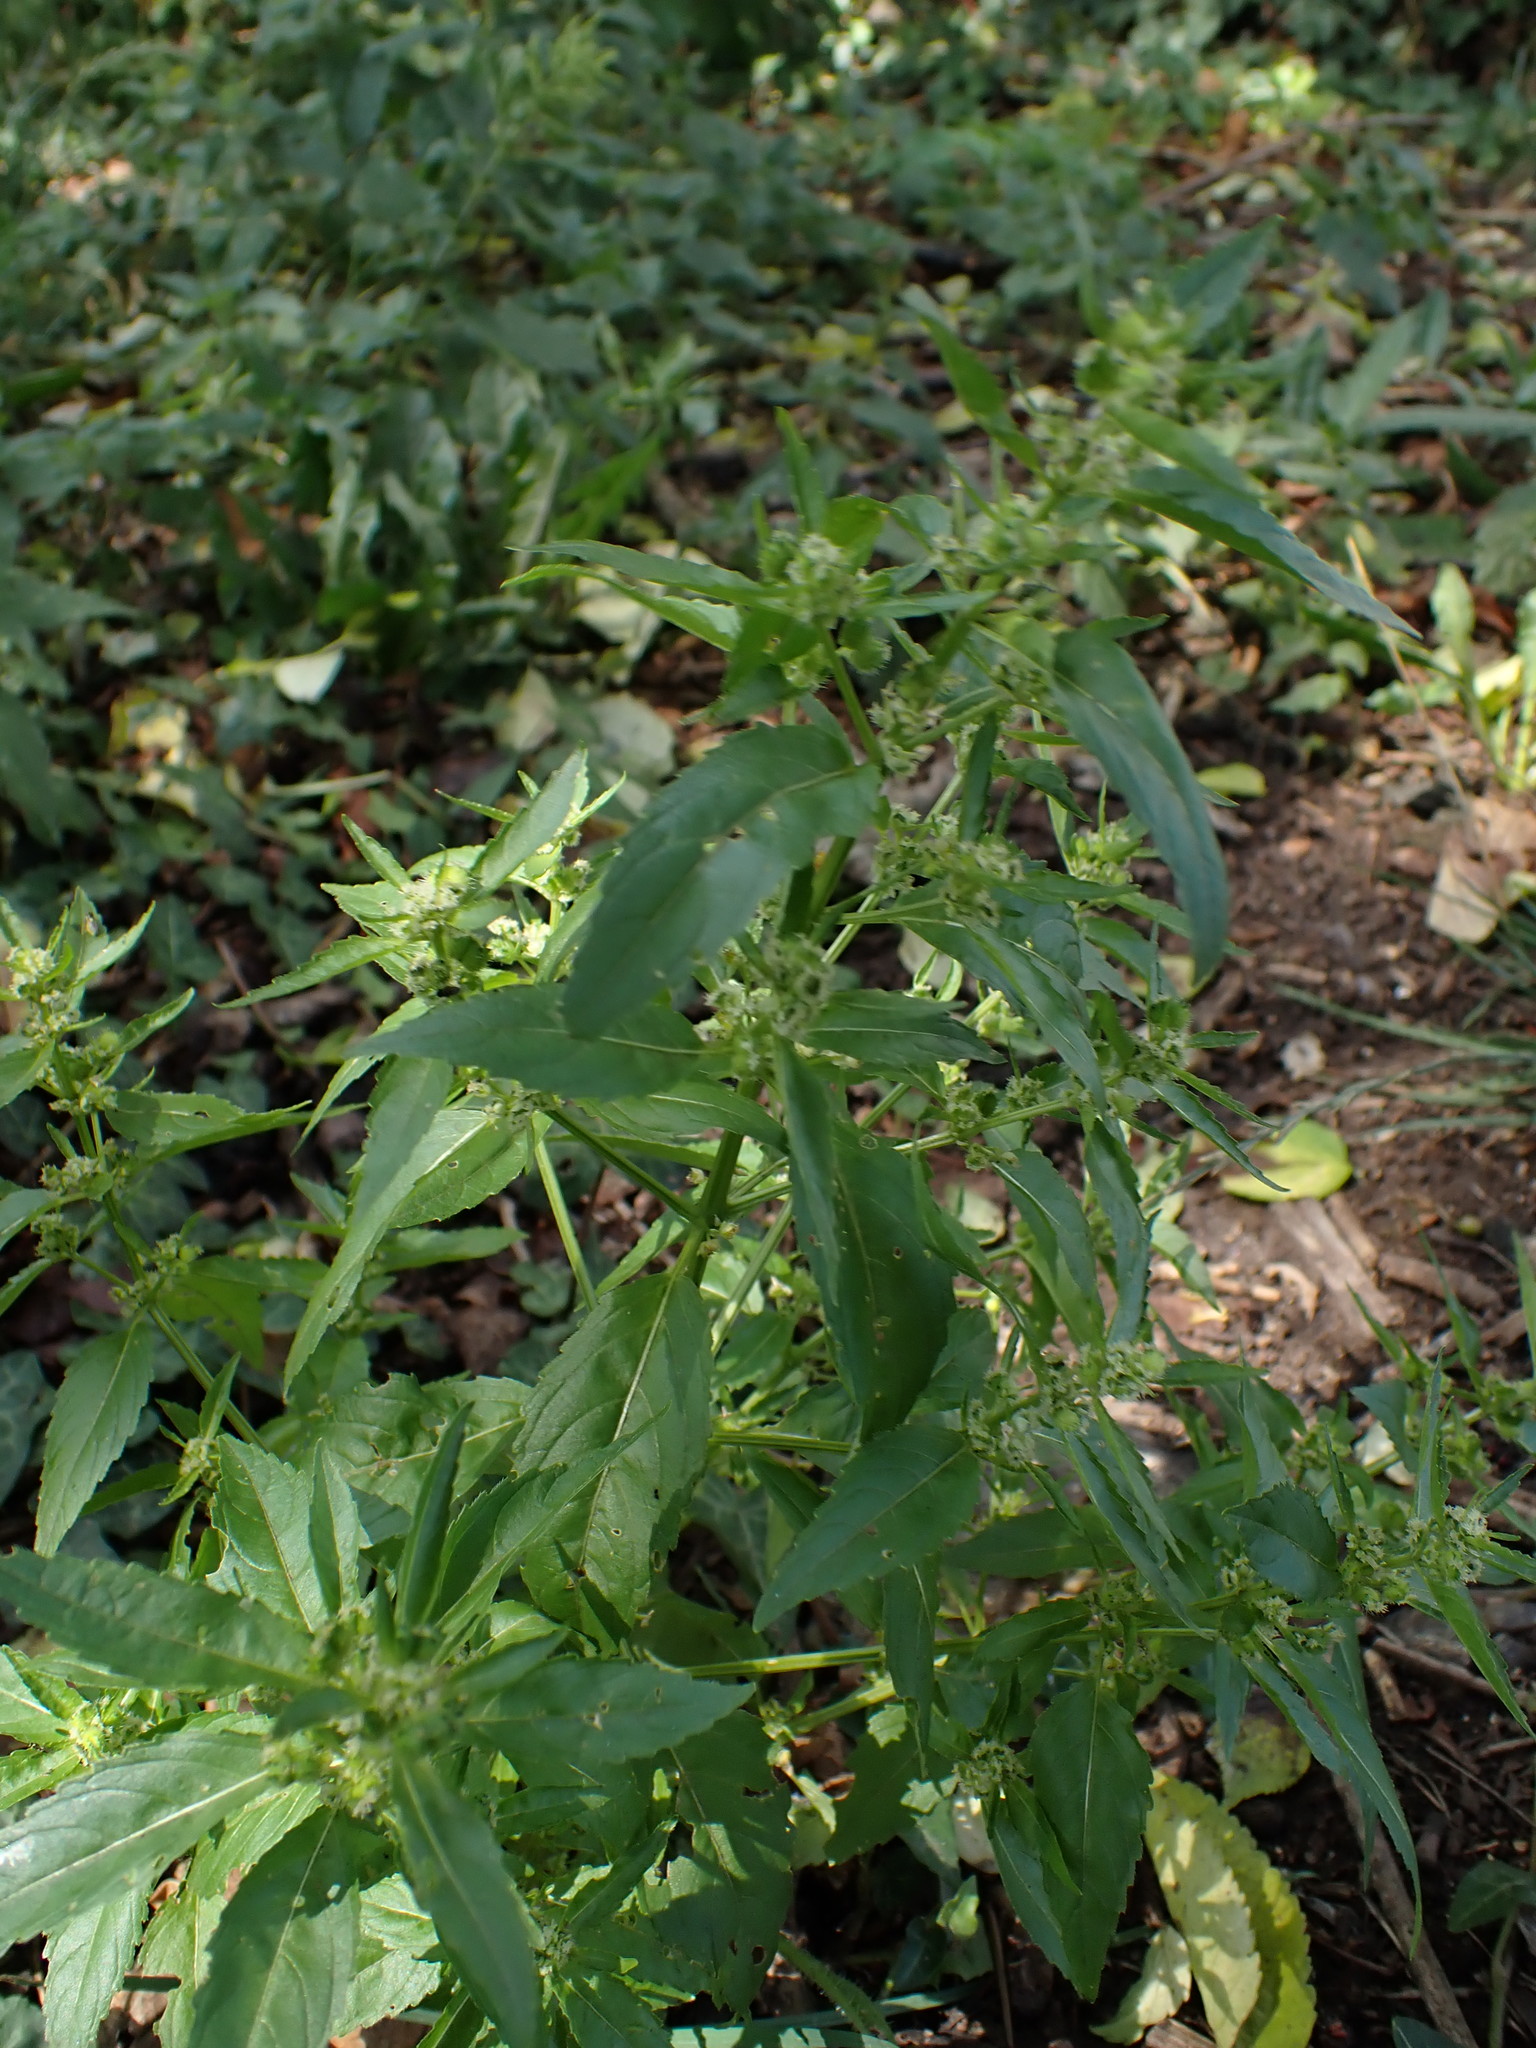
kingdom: Plantae
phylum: Tracheophyta
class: Magnoliopsida
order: Malpighiales
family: Euphorbiaceae
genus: Mercurialis
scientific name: Mercurialis annua
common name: Annual mercury
